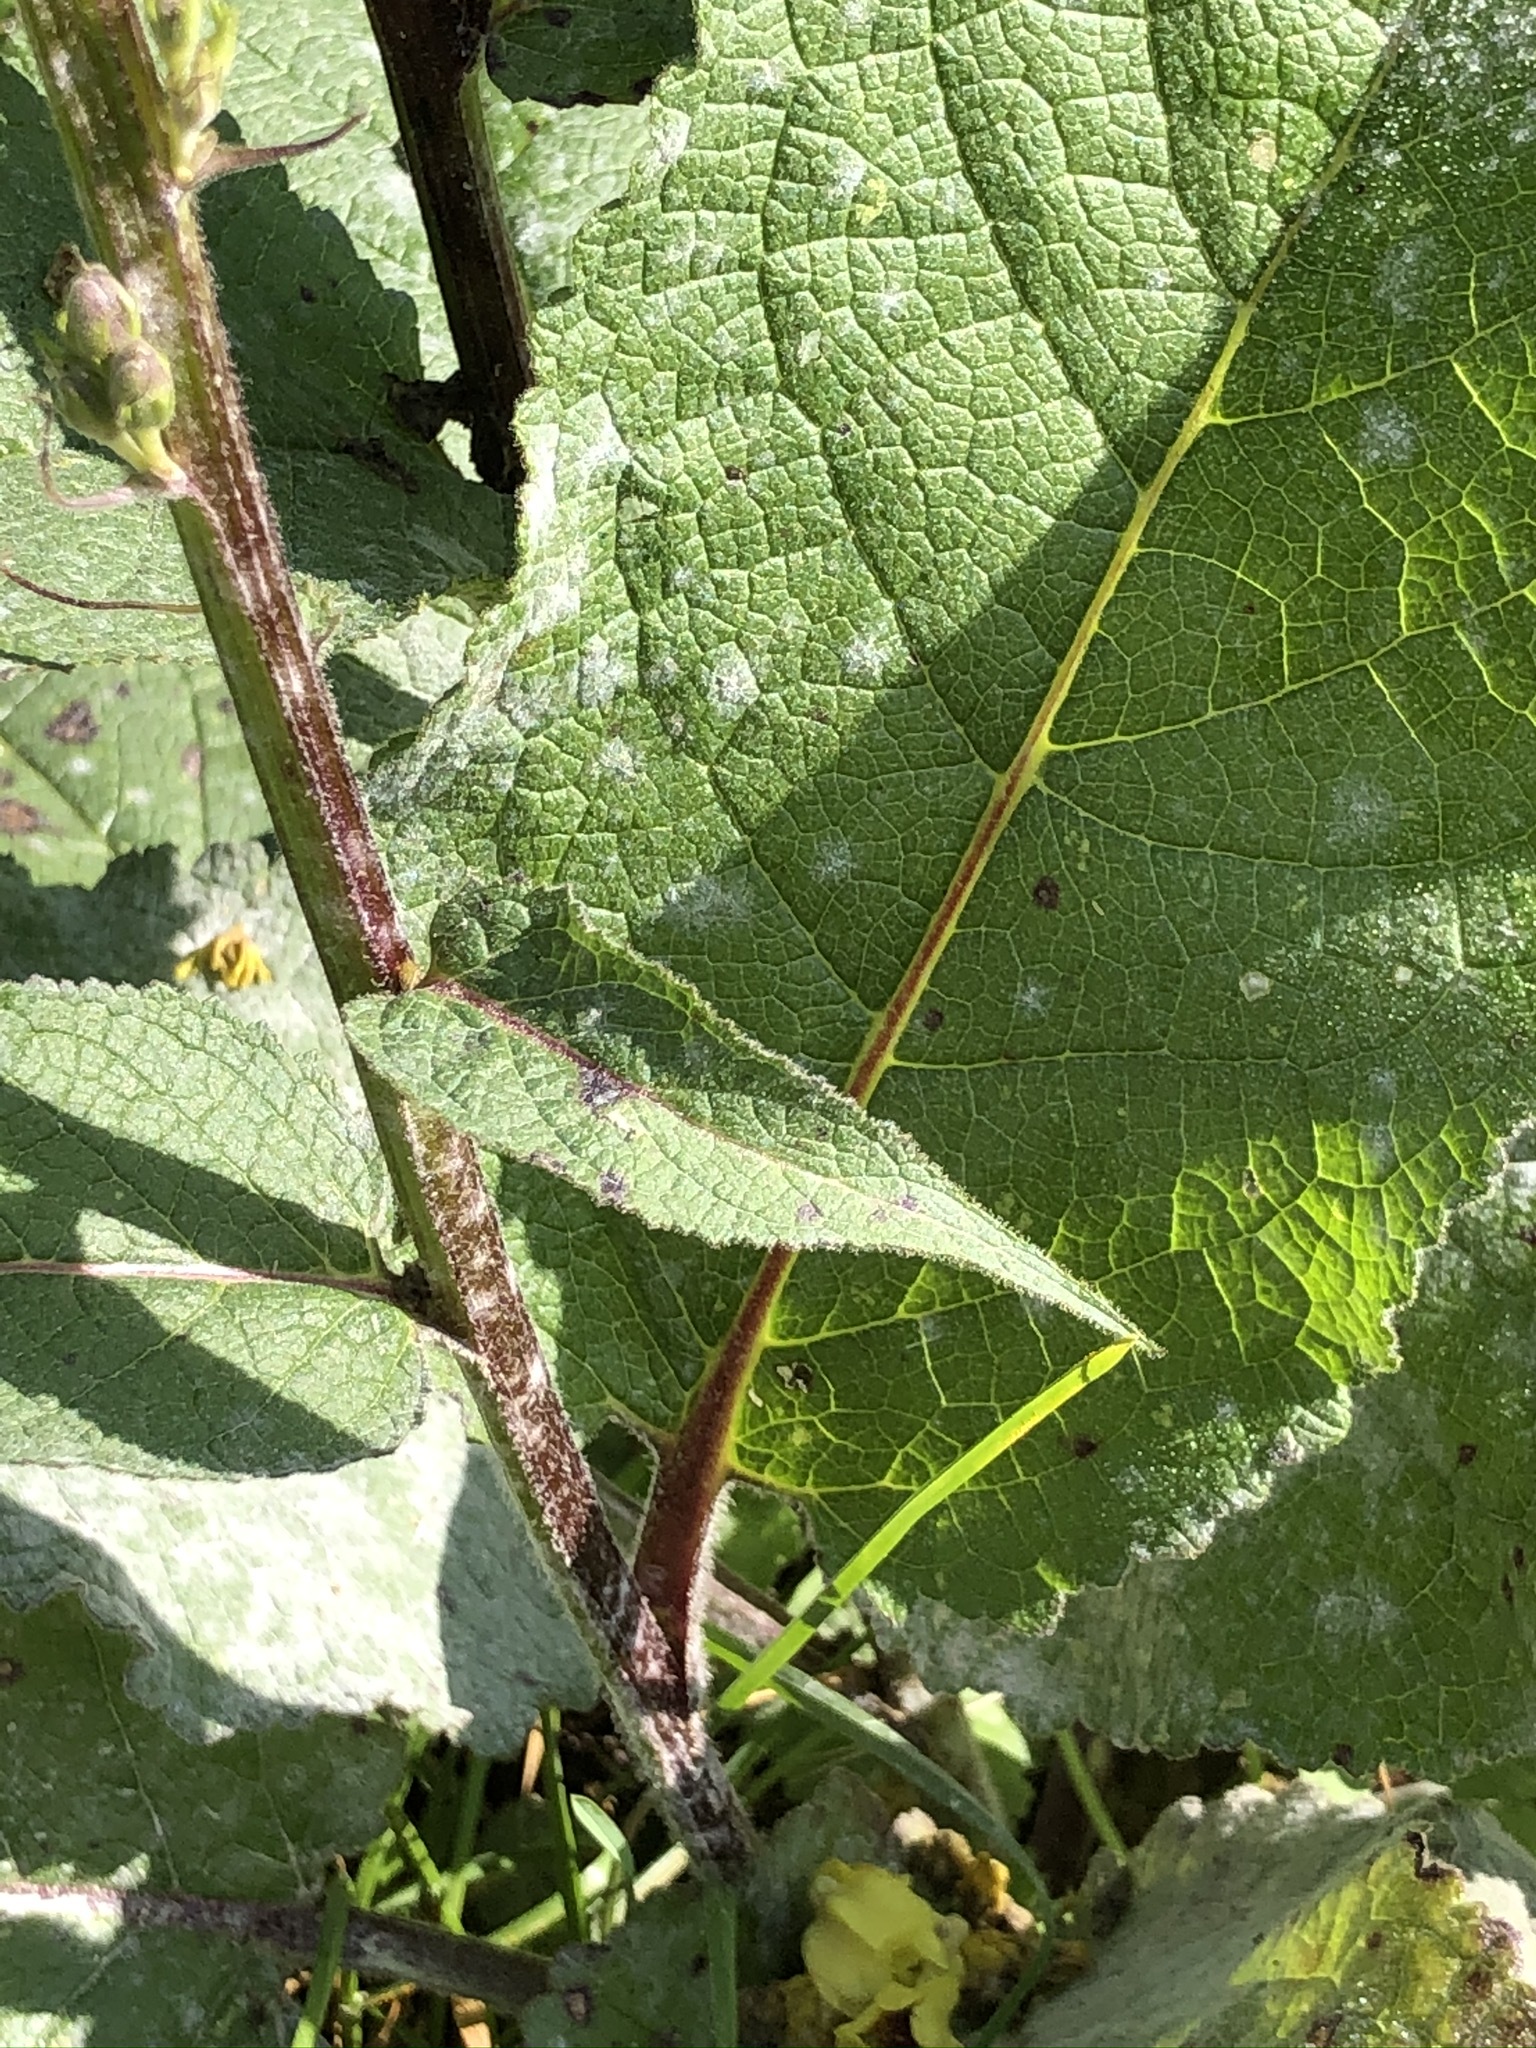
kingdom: Plantae
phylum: Tracheophyta
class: Magnoliopsida
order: Lamiales
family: Scrophulariaceae
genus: Verbascum
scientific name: Verbascum nigrum
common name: Dark mullein
